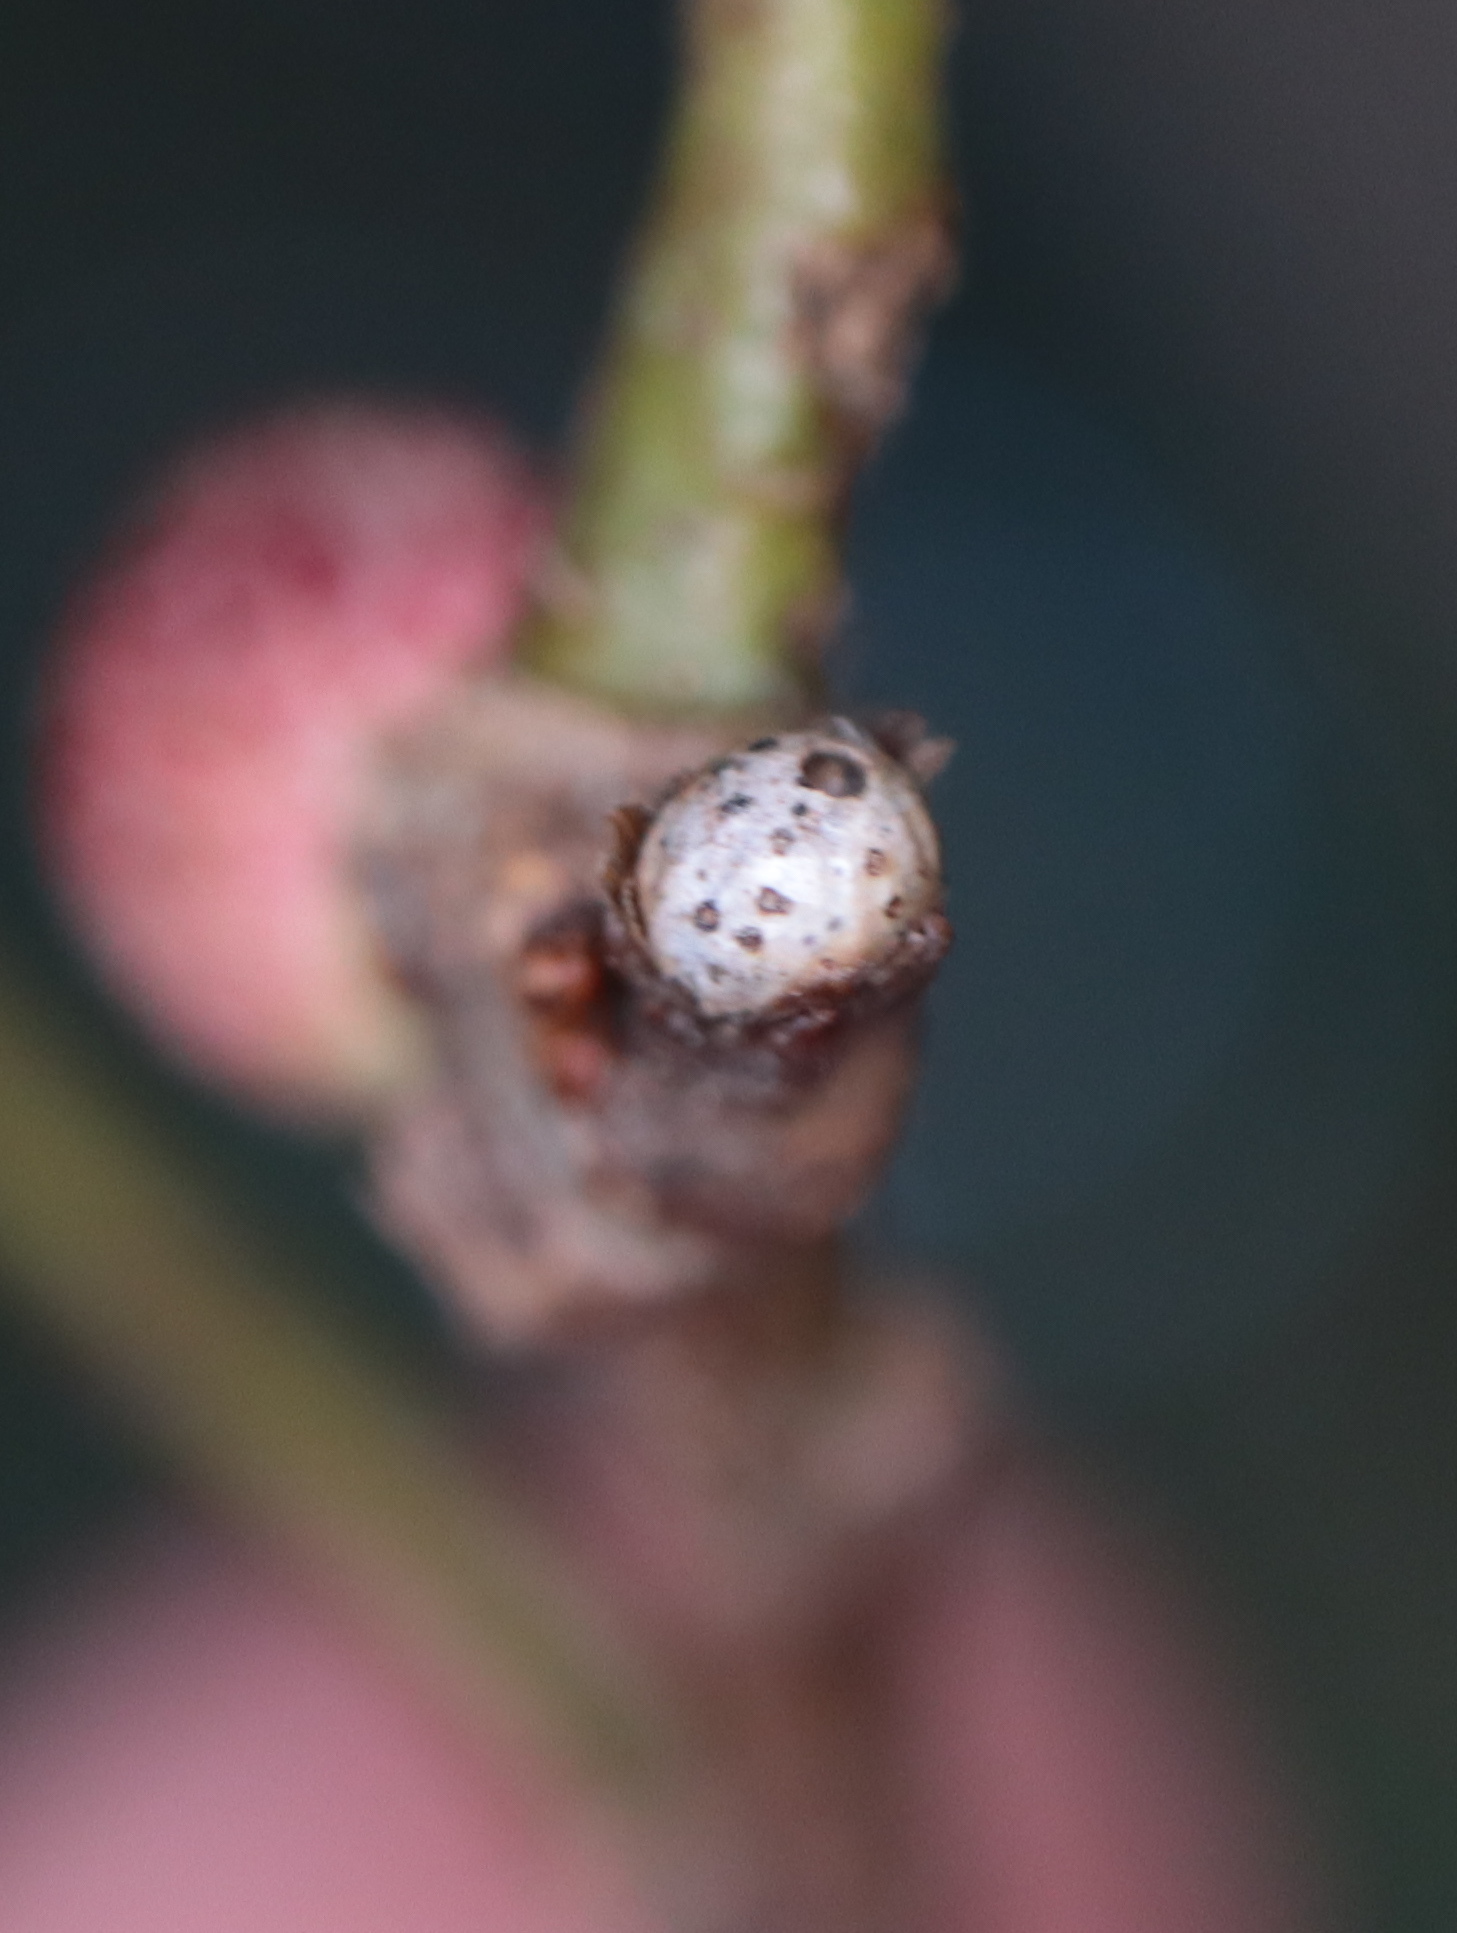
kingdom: Animalia
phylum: Arthropoda
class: Insecta
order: Hymenoptera
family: Cynipidae
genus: Andricus
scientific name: Andricus
